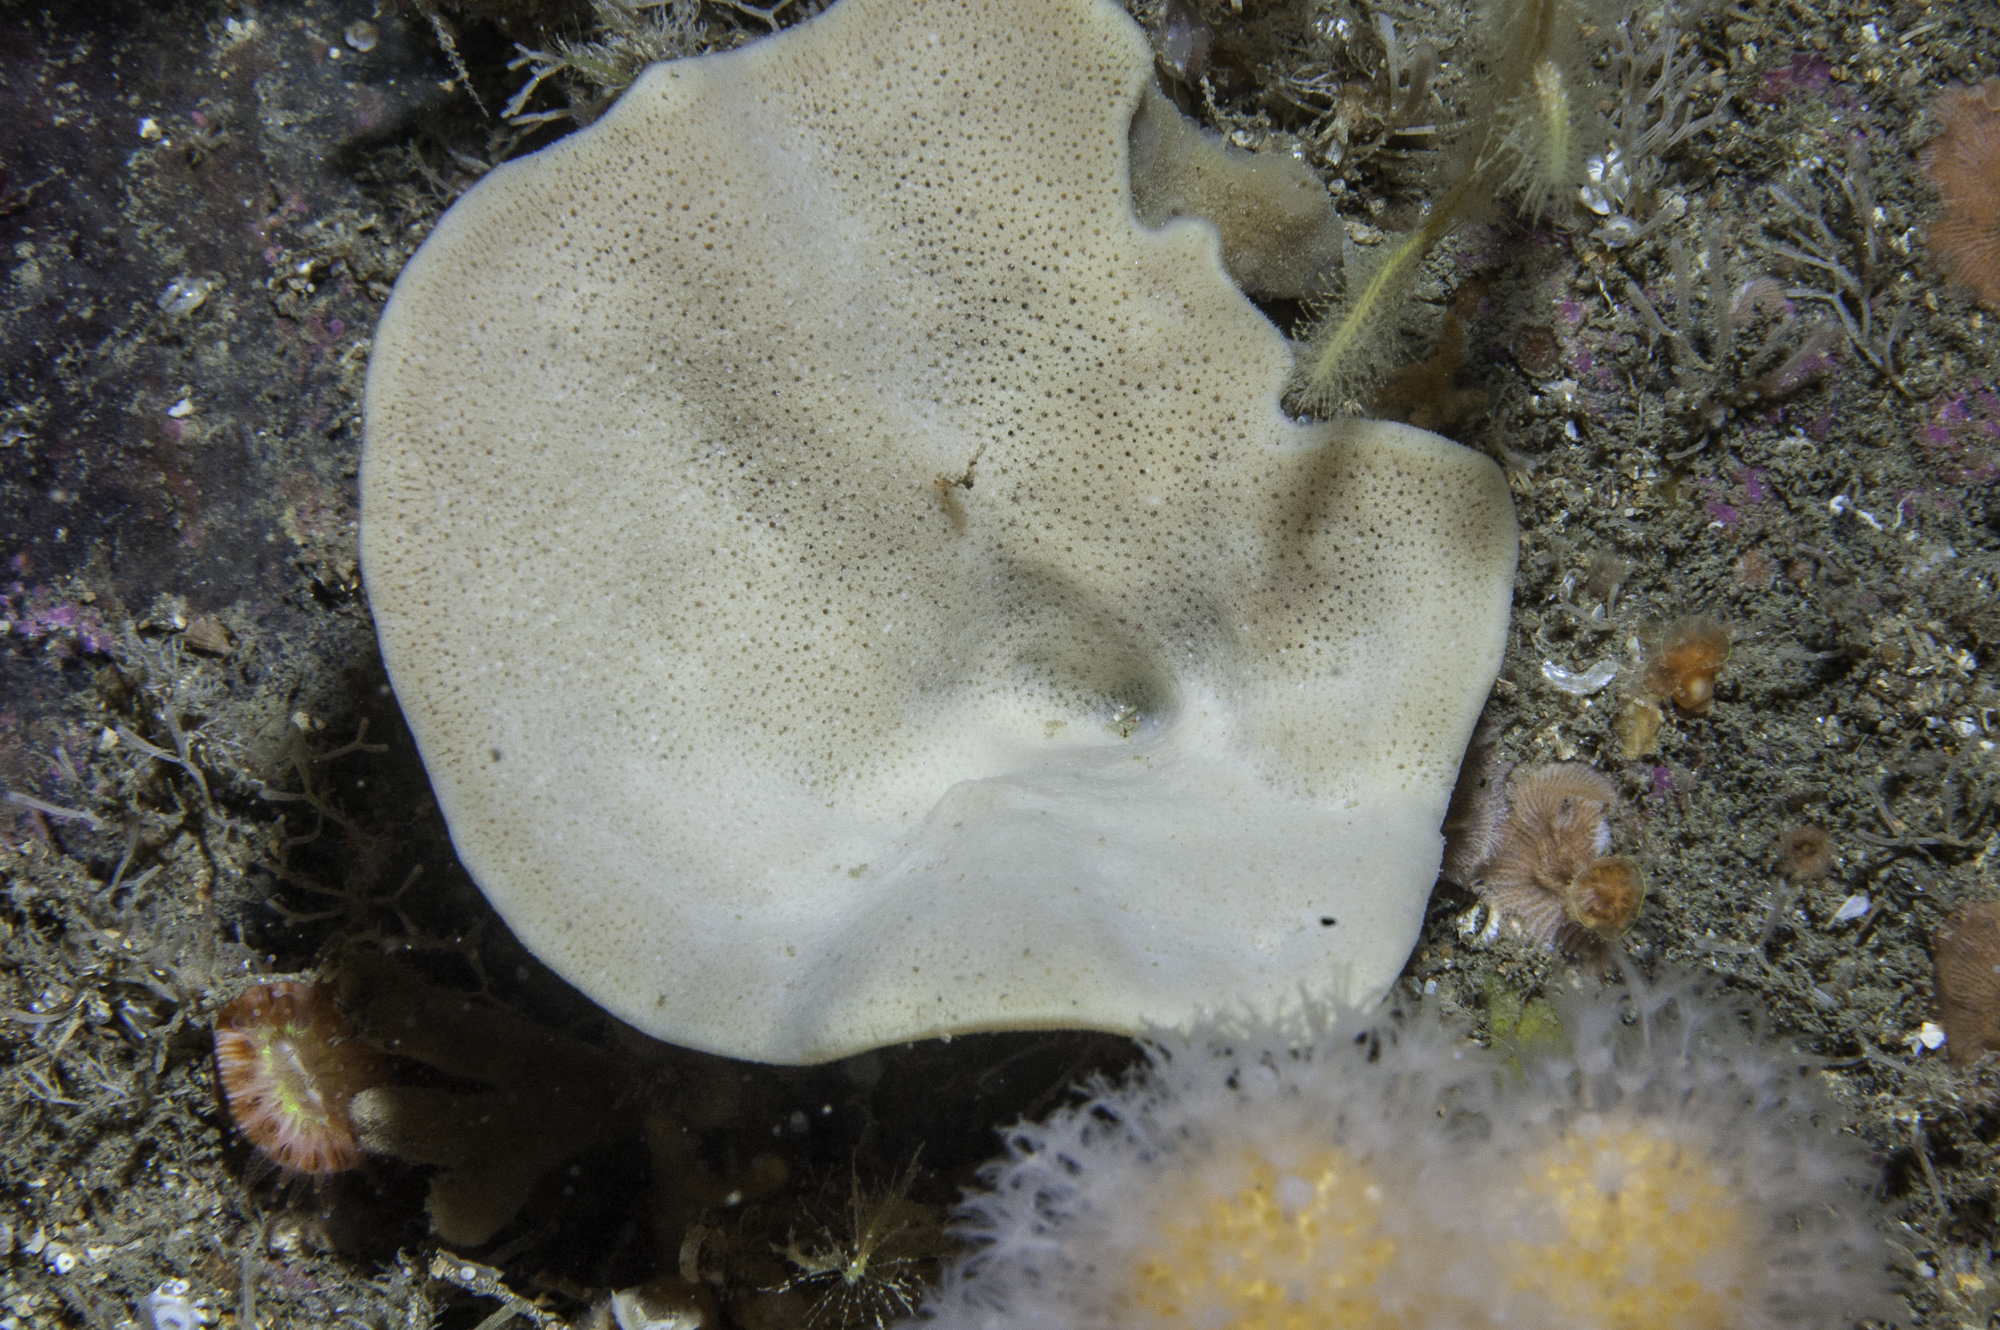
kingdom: Animalia
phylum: Porifera
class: Demospongiae
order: Axinellida
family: Axinellidae
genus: Axinella
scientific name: Axinella infundibuliformis
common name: North atlantic cup sponge
